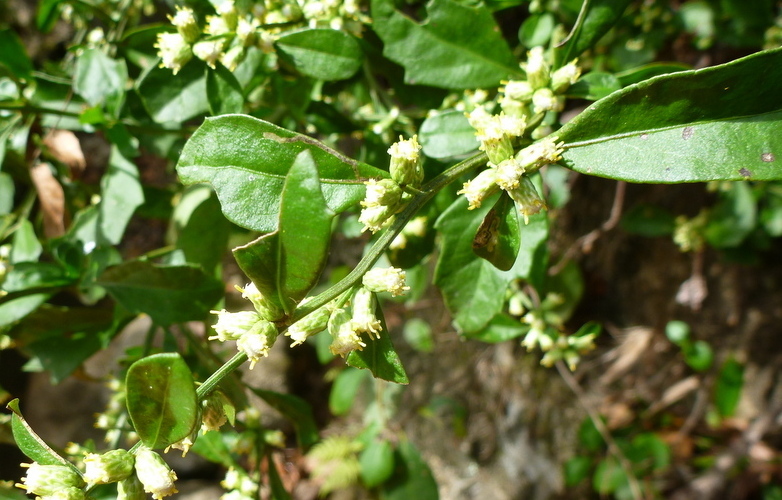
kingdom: Plantae
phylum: Tracheophyta
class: Magnoliopsida
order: Asterales
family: Asteraceae
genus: Baccharis
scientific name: Baccharis glomeruliflora
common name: Silverling groundsel bush
